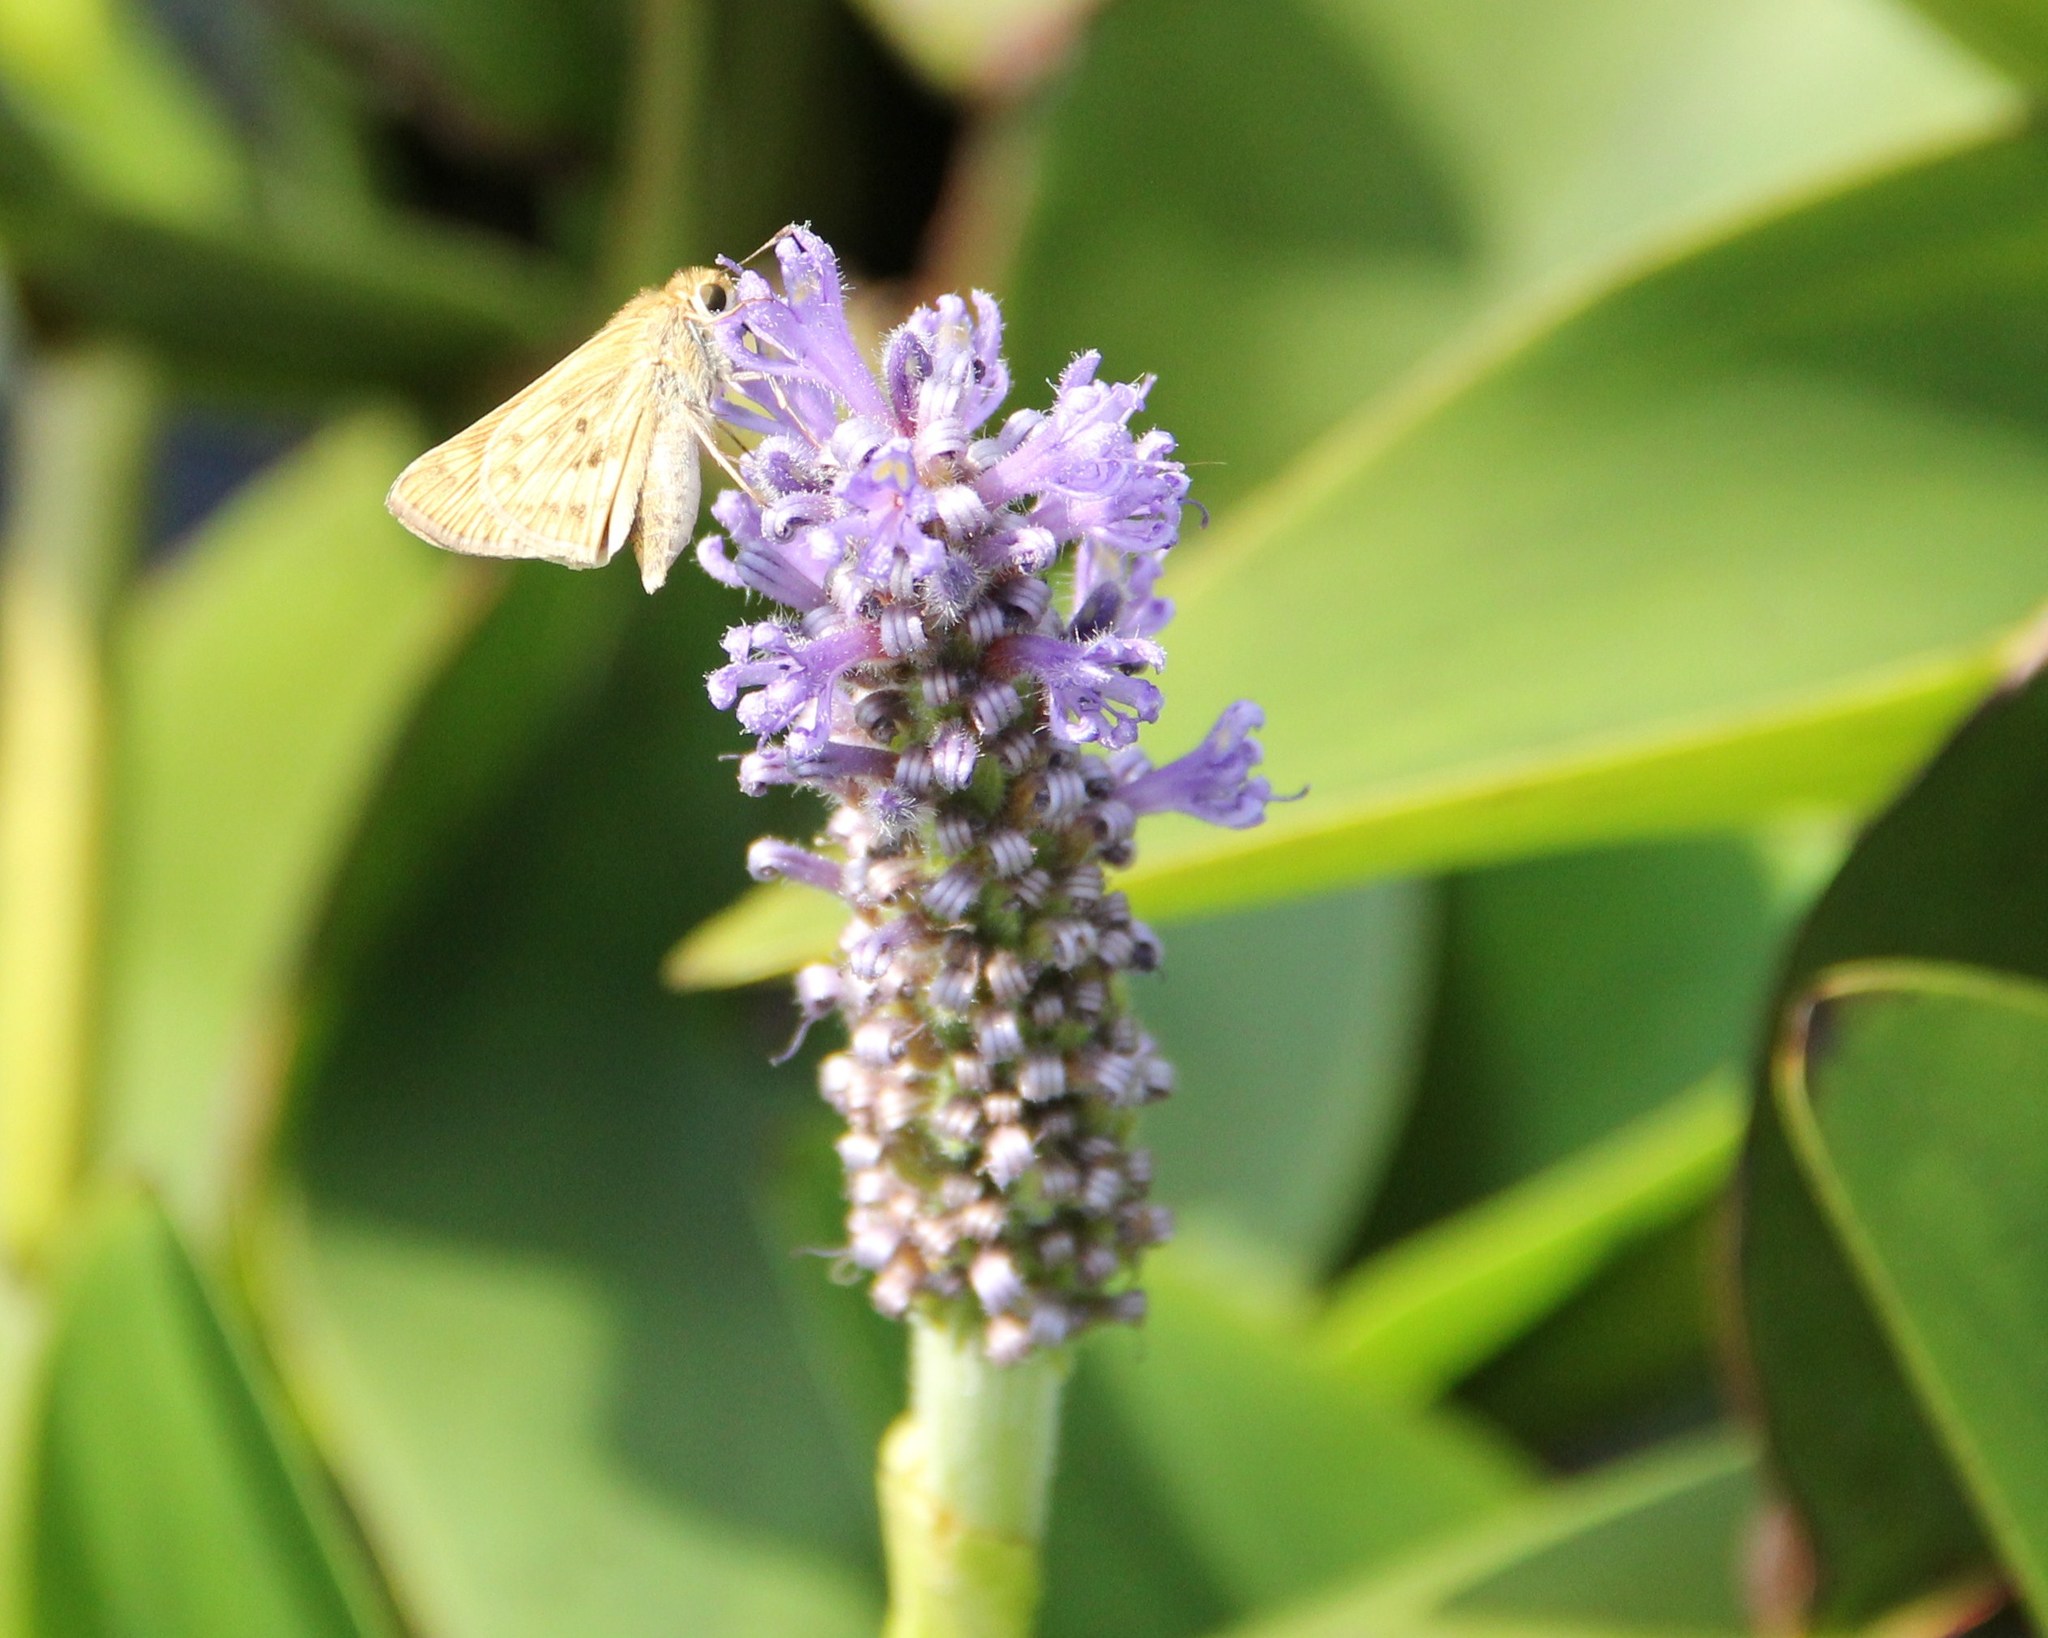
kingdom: Animalia
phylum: Arthropoda
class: Insecta
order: Lepidoptera
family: Hesperiidae
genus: Hylephila
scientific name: Hylephila phyleus
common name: Fiery skipper
